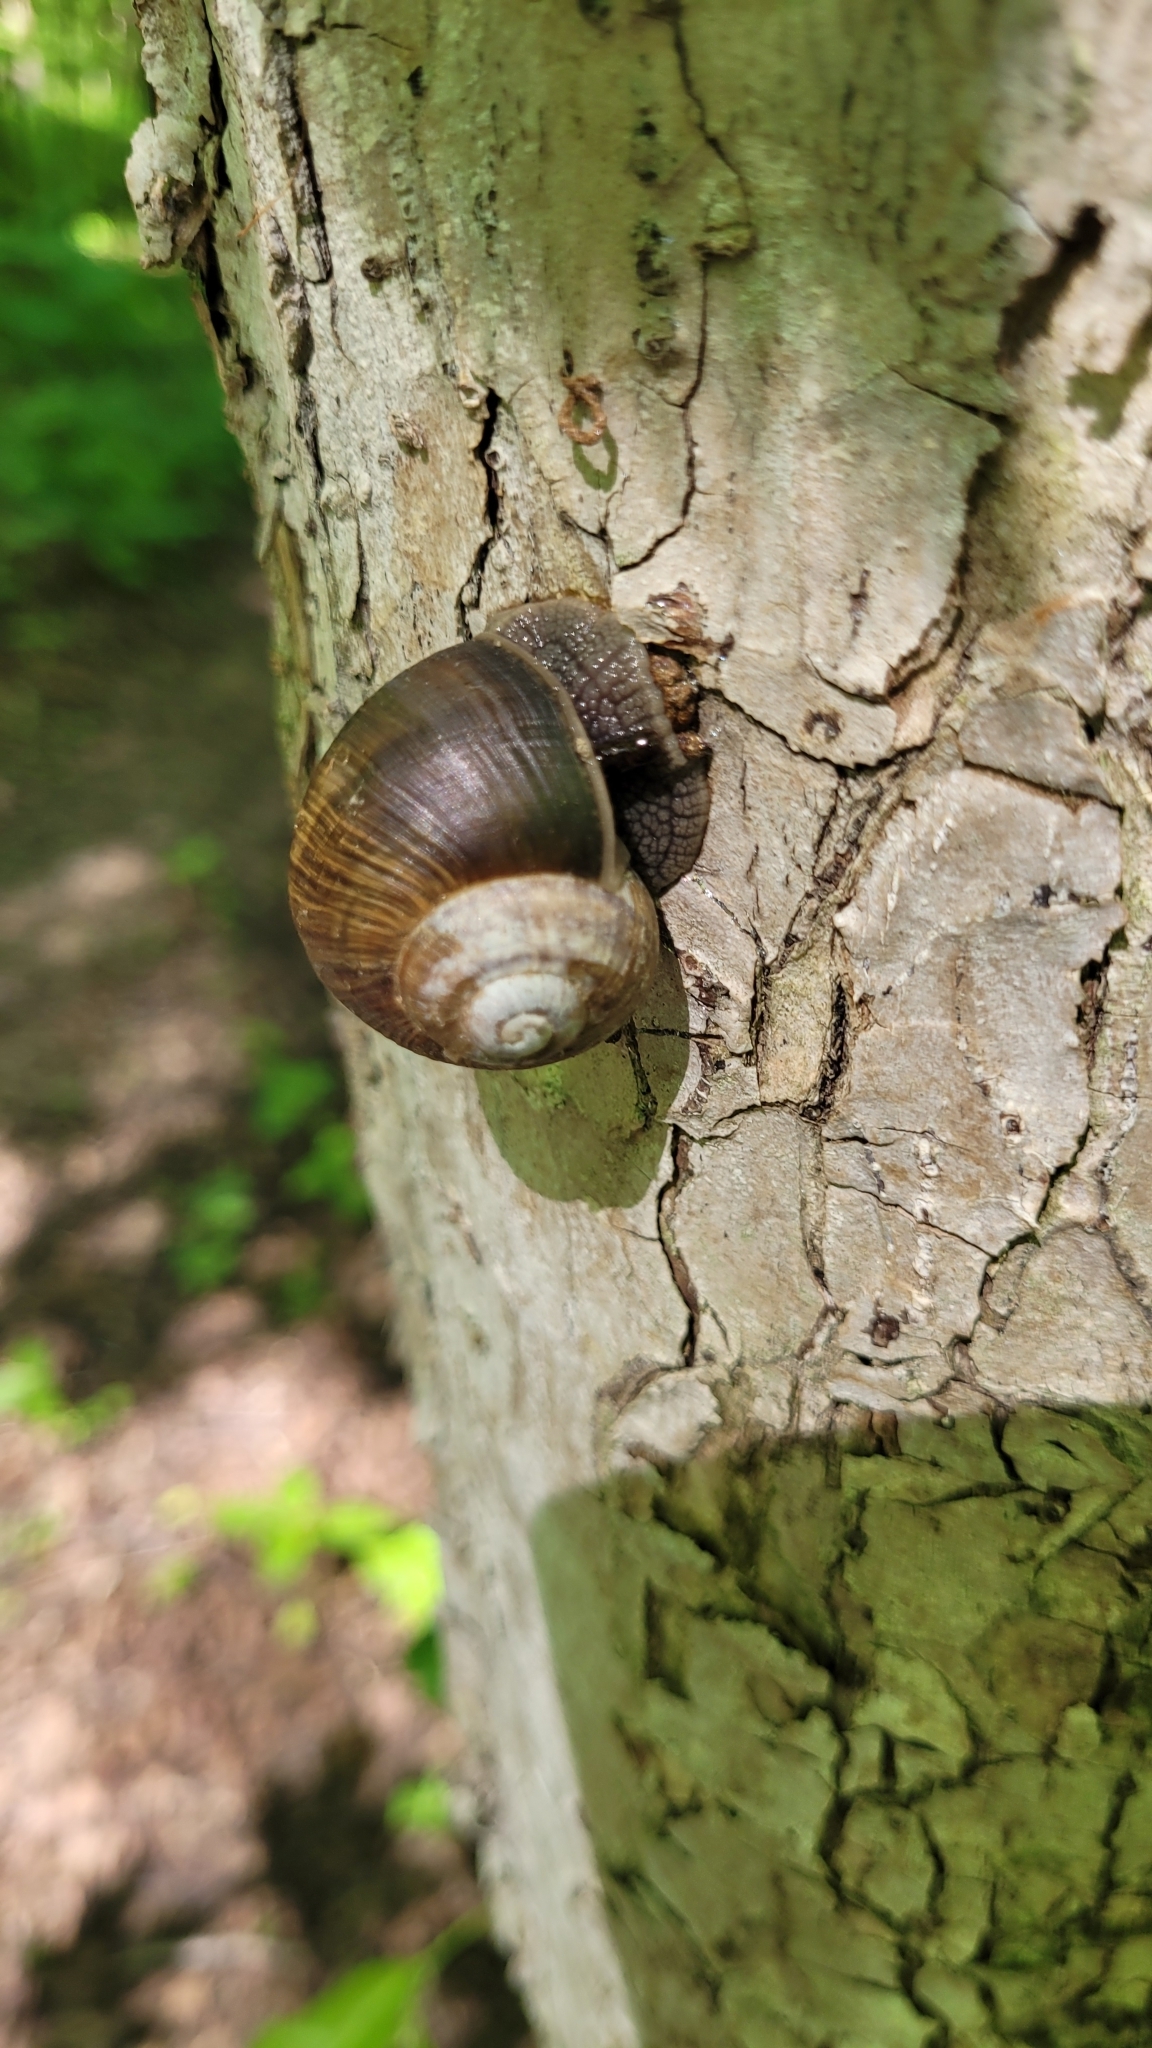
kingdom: Animalia
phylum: Mollusca
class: Gastropoda
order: Stylommatophora
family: Helicidae
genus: Helix
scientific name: Helix pomatia
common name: Roman snail
